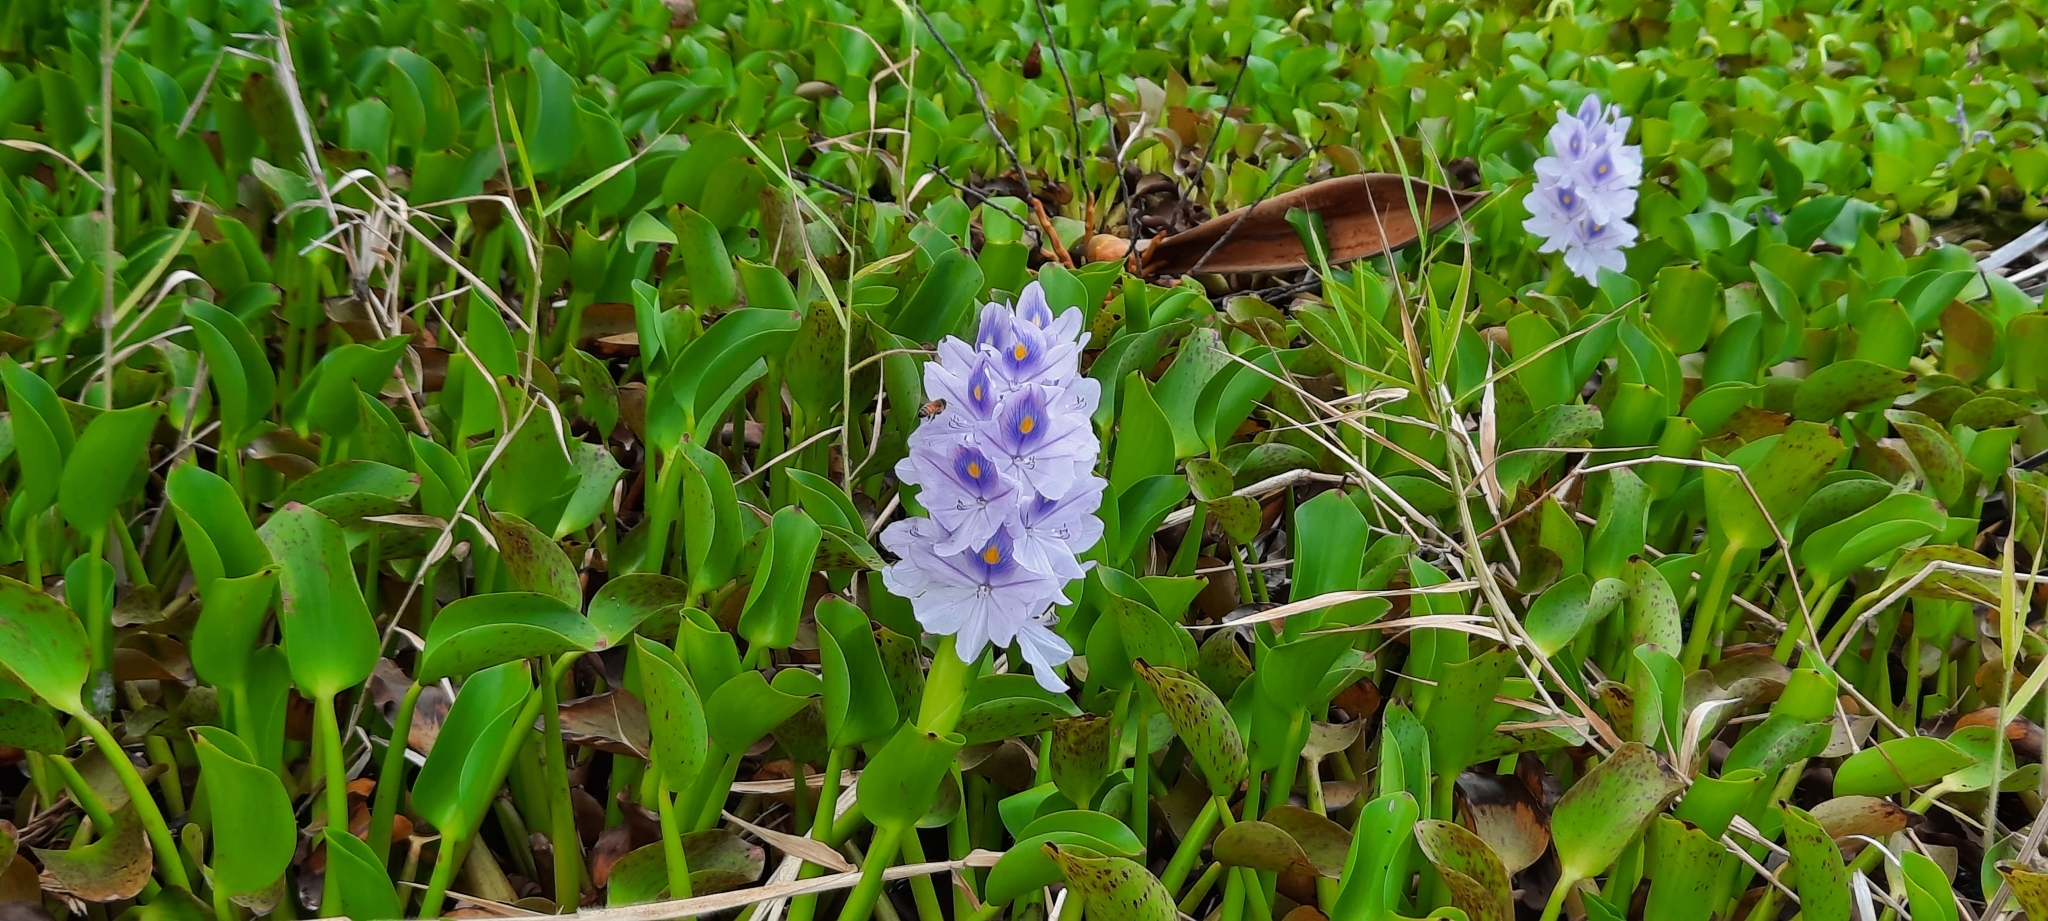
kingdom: Plantae
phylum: Tracheophyta
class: Liliopsida
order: Commelinales
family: Pontederiaceae
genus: Pontederia
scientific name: Pontederia crassipes
